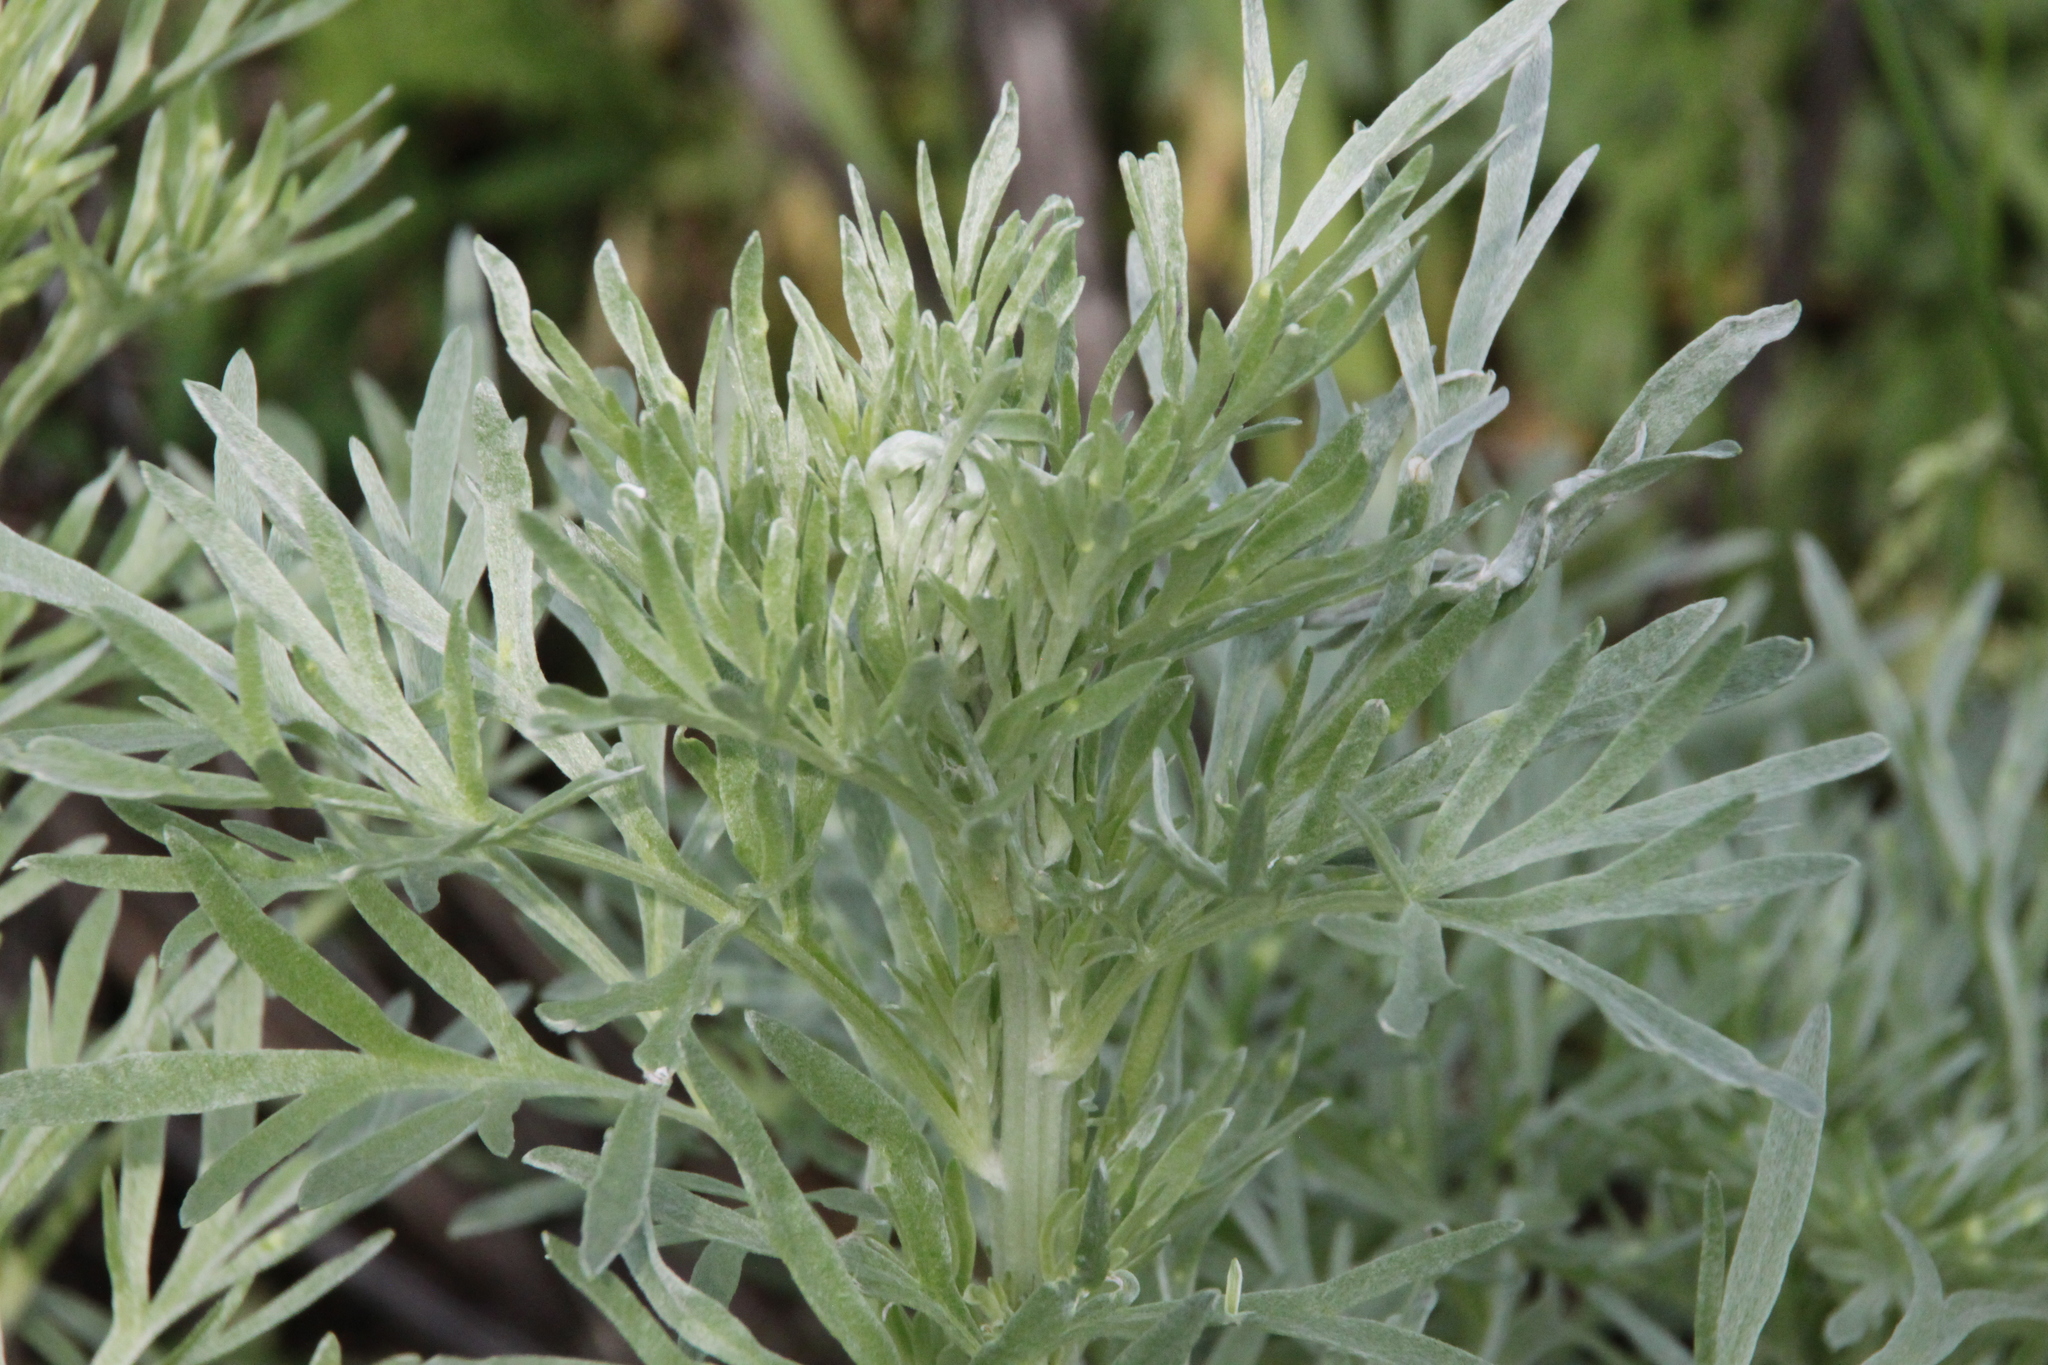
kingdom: Plantae
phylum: Tracheophyta
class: Magnoliopsida
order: Asterales
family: Asteraceae
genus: Artemisia
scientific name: Artemisia absinthium
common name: Wormwood
